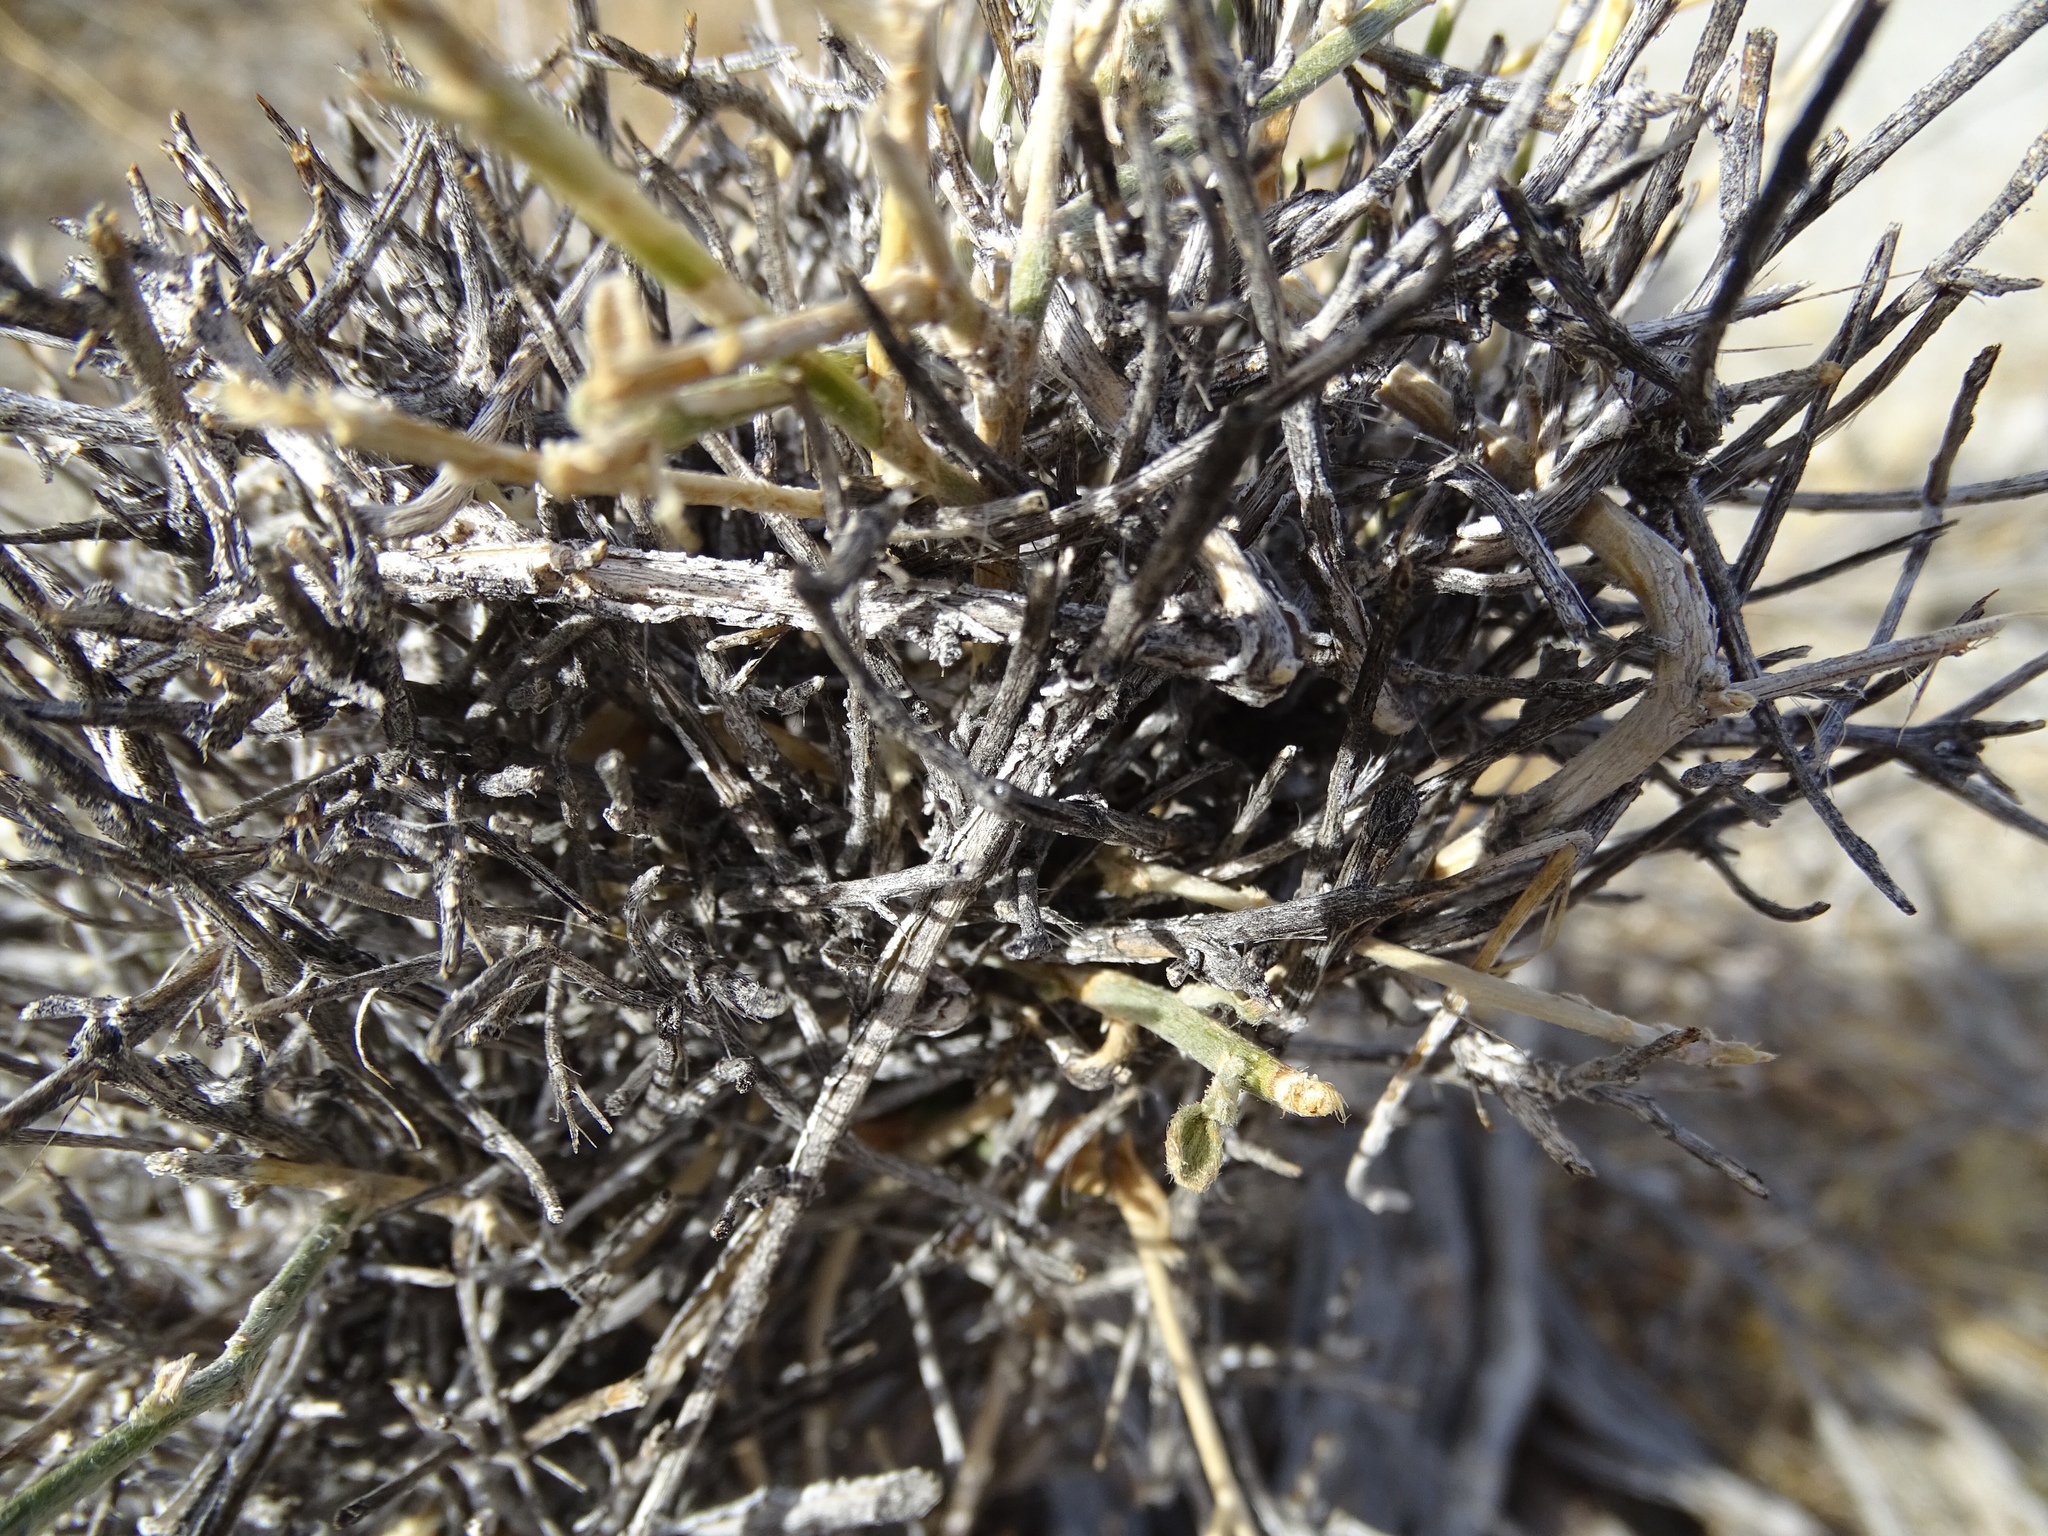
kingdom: Plantae
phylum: Tracheophyta
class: Magnoliopsida
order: Malpighiales
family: Euphorbiaceae
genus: Ditaxis
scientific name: Ditaxis lanceolata
